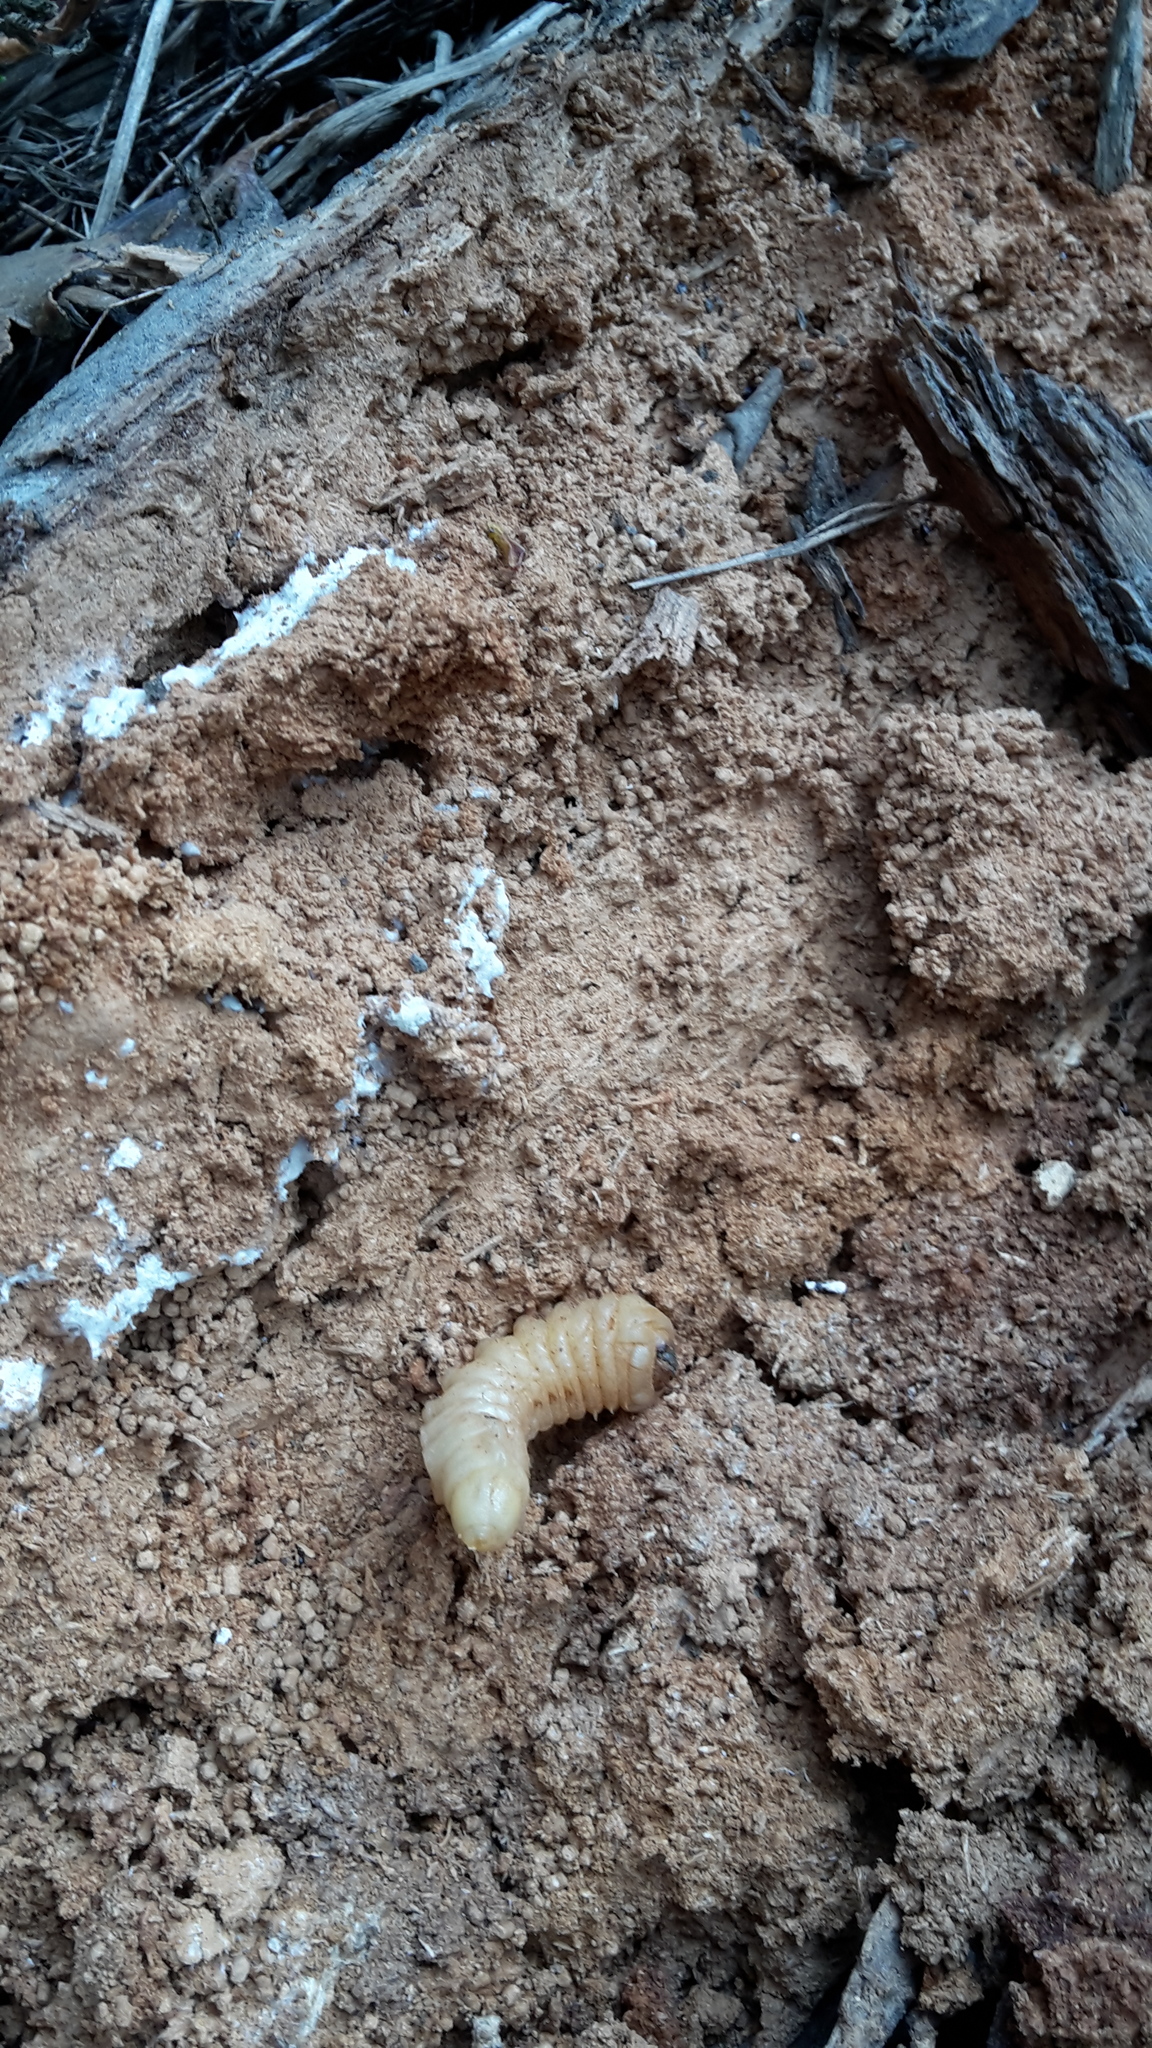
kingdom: Animalia
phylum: Arthropoda
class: Insecta
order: Coleoptera
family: Cerambycidae
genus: Prionoplus
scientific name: Prionoplus reticularis
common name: Huhu beetle
